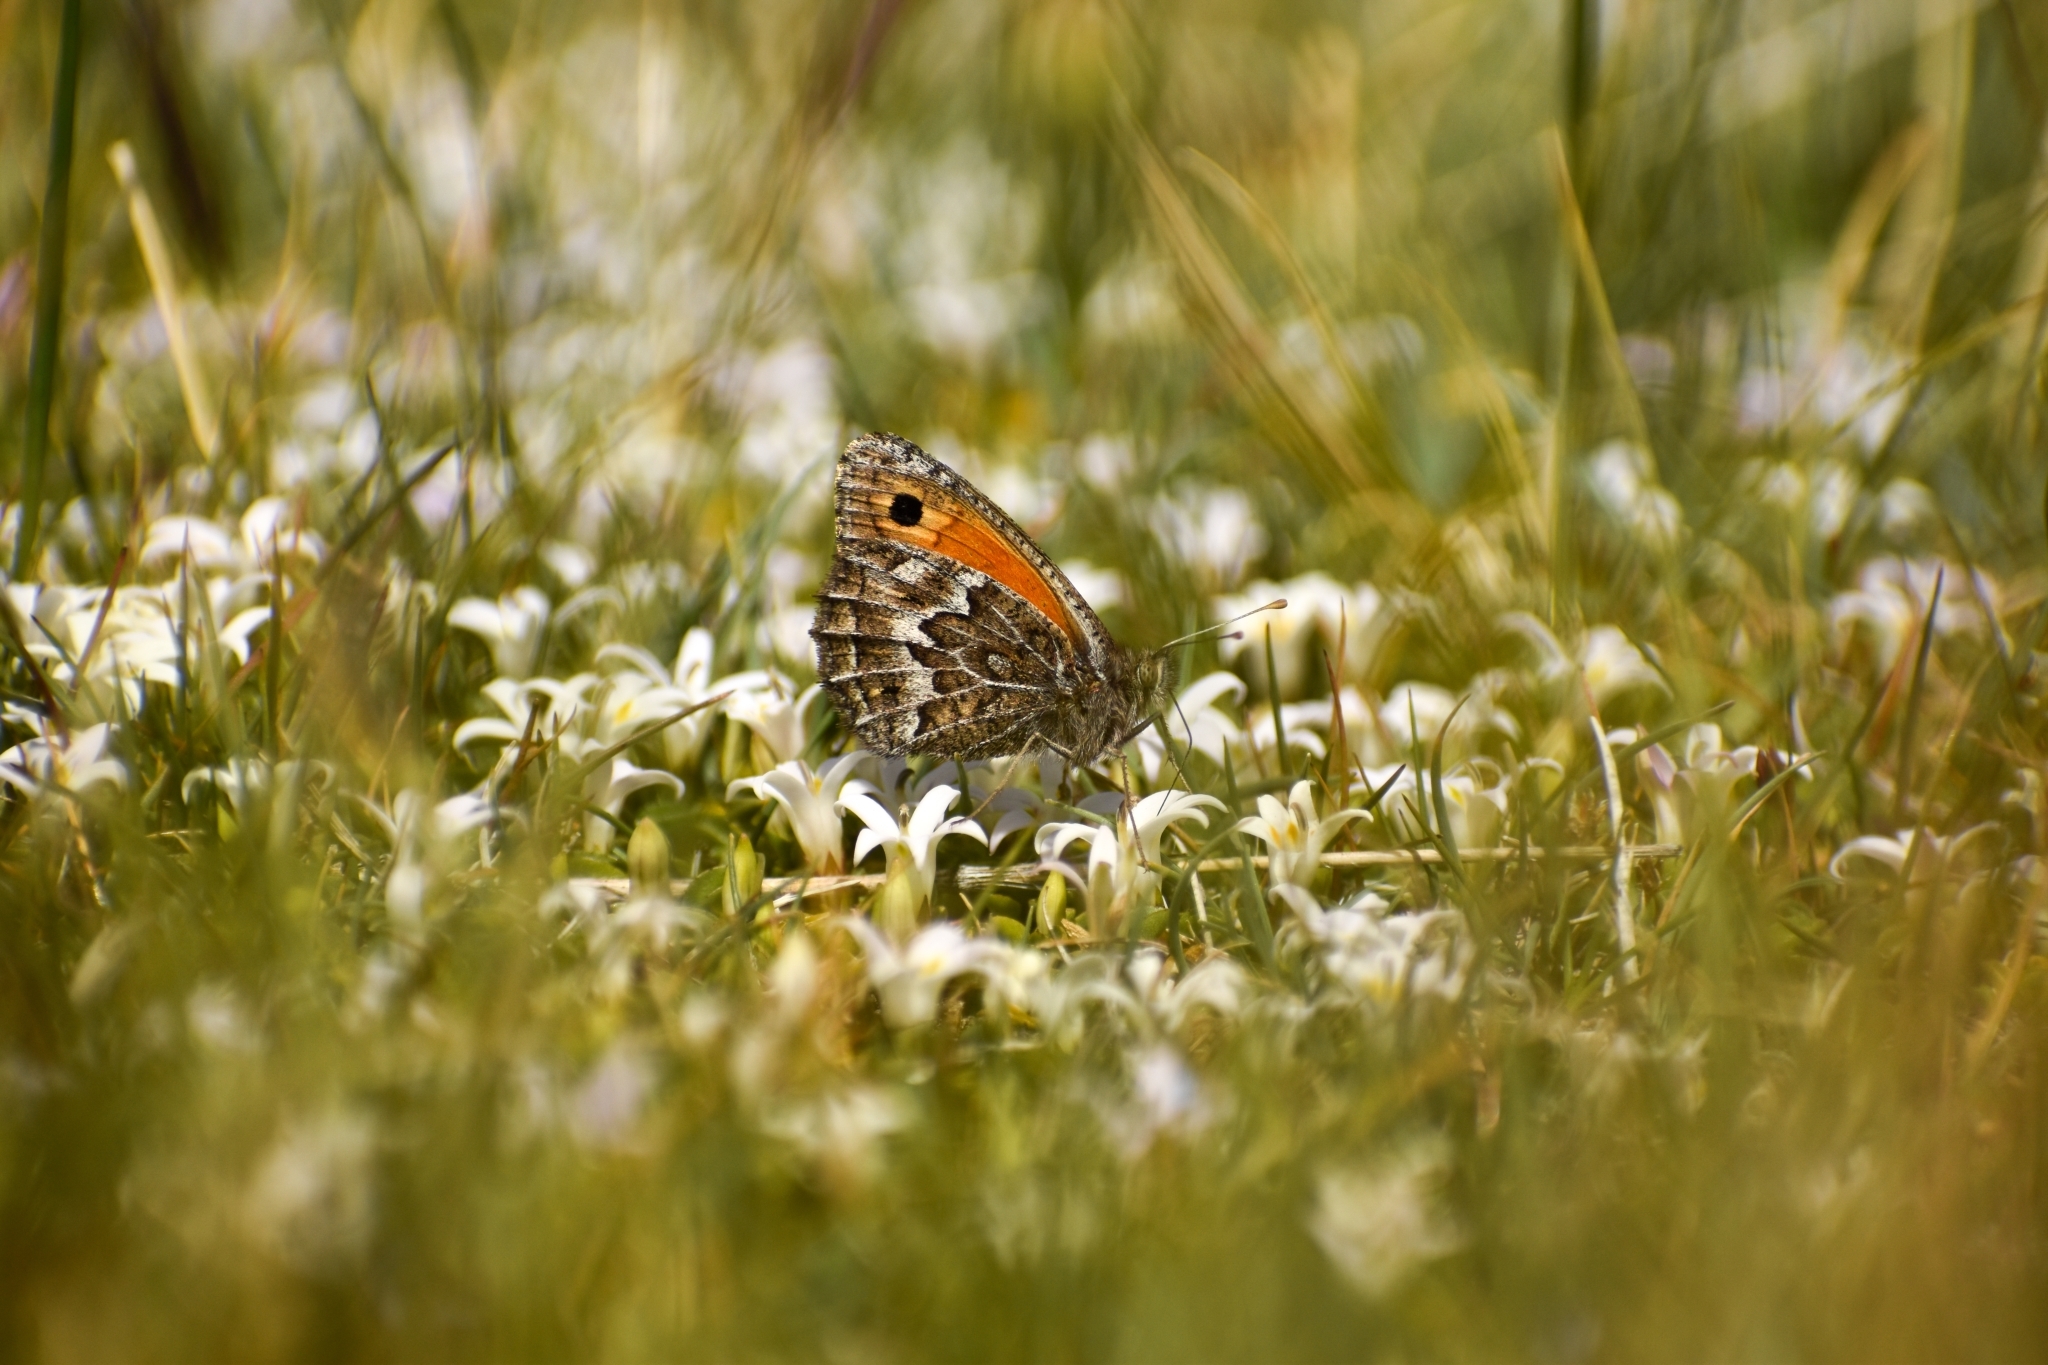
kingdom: Animalia
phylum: Arthropoda
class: Insecta
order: Lepidoptera
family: Nymphalidae
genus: Argyrophorus
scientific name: Argyrophorus
